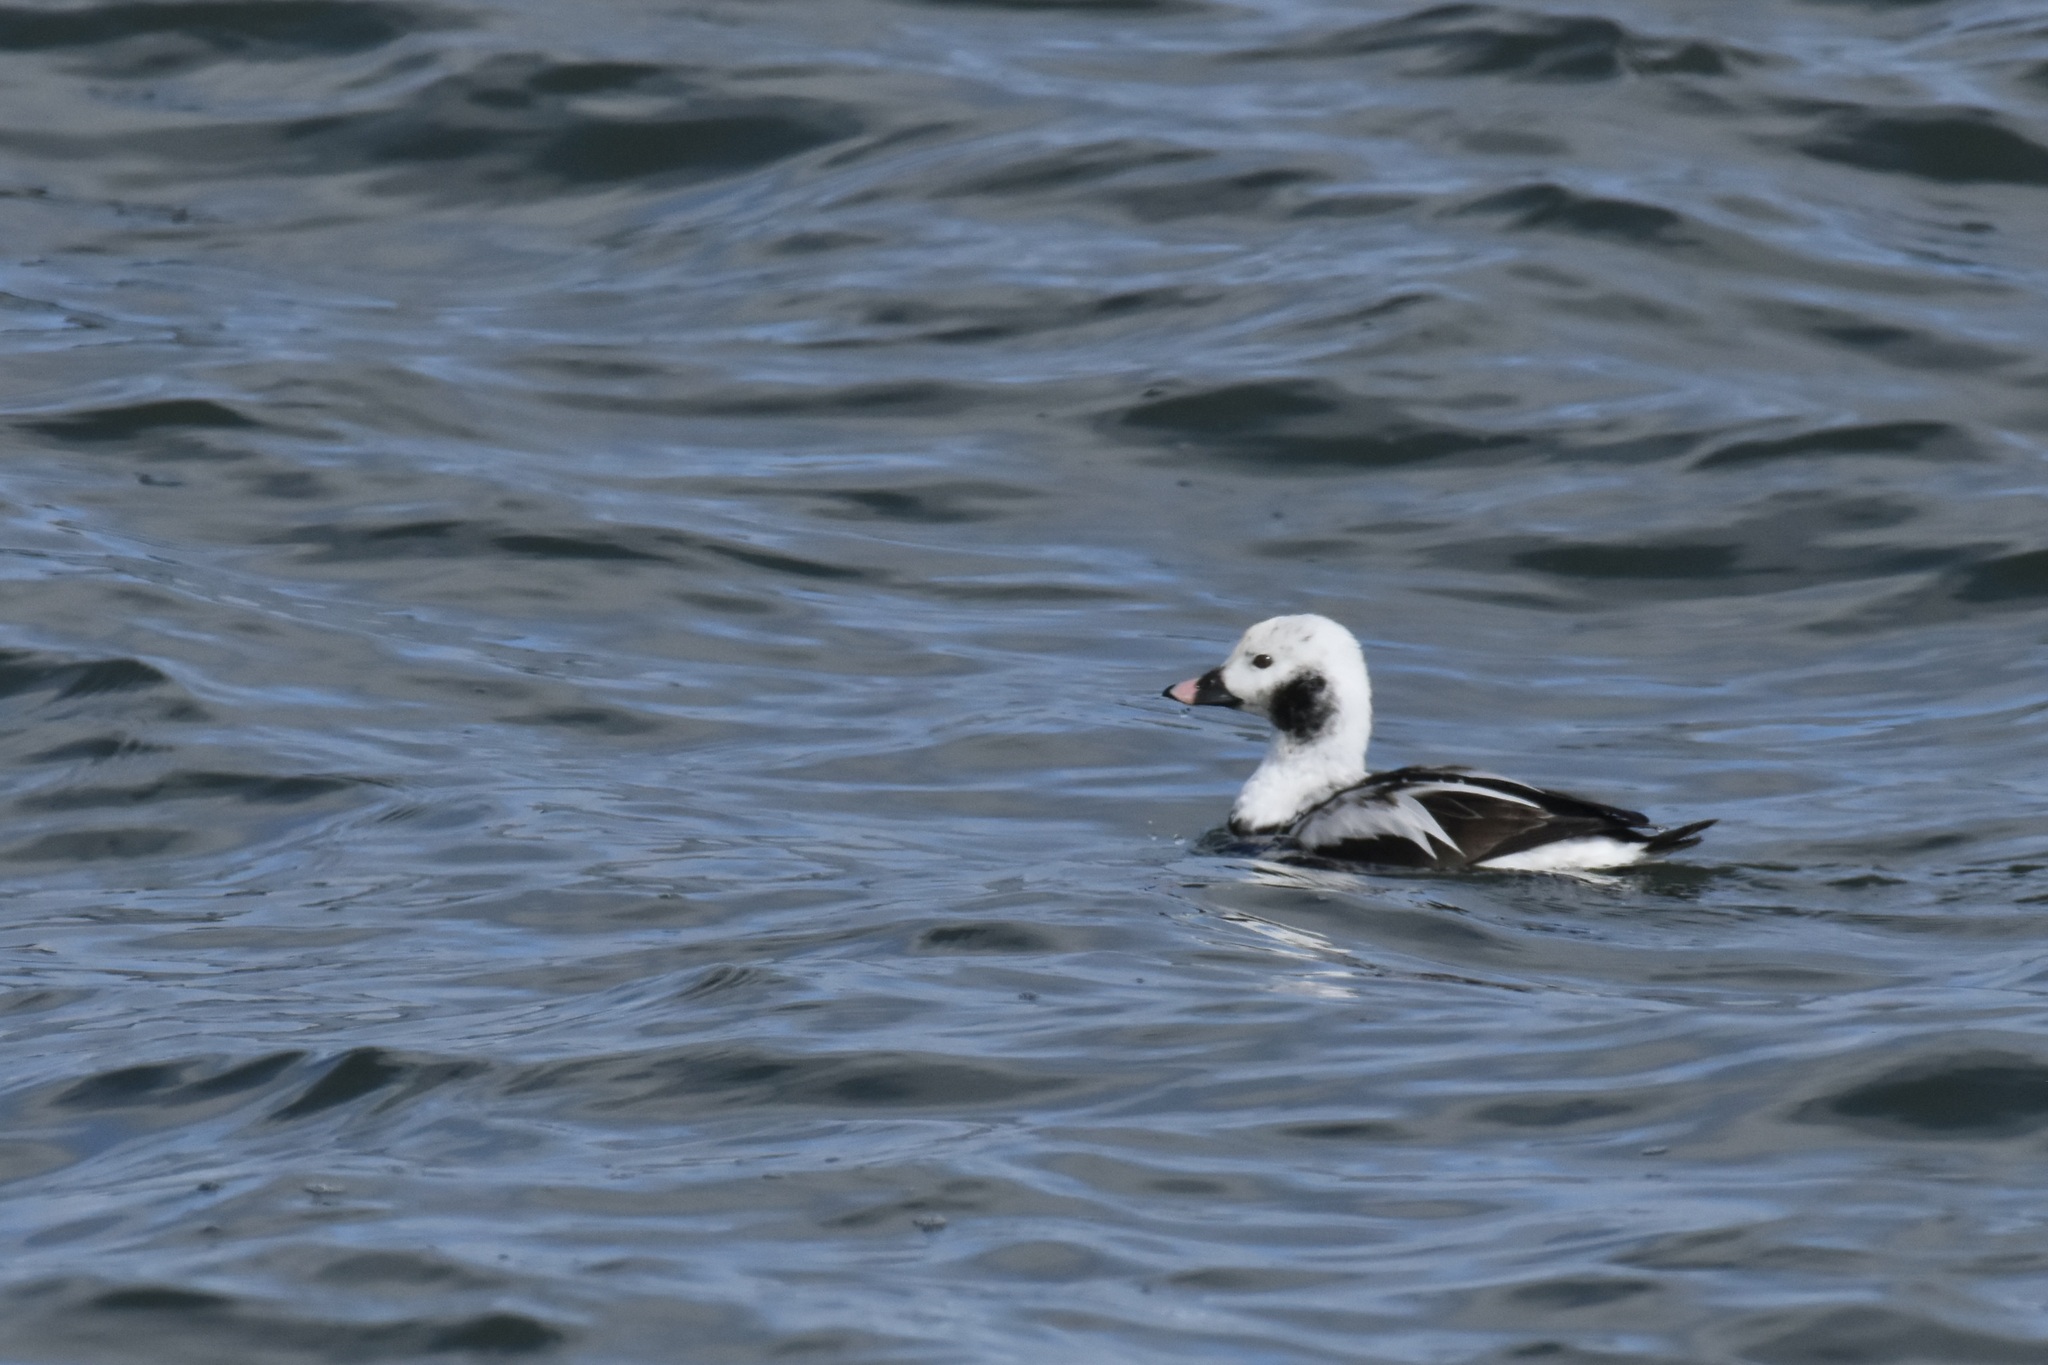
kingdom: Animalia
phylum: Chordata
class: Aves
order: Anseriformes
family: Anatidae
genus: Clangula
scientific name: Clangula hyemalis
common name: Long-tailed duck
